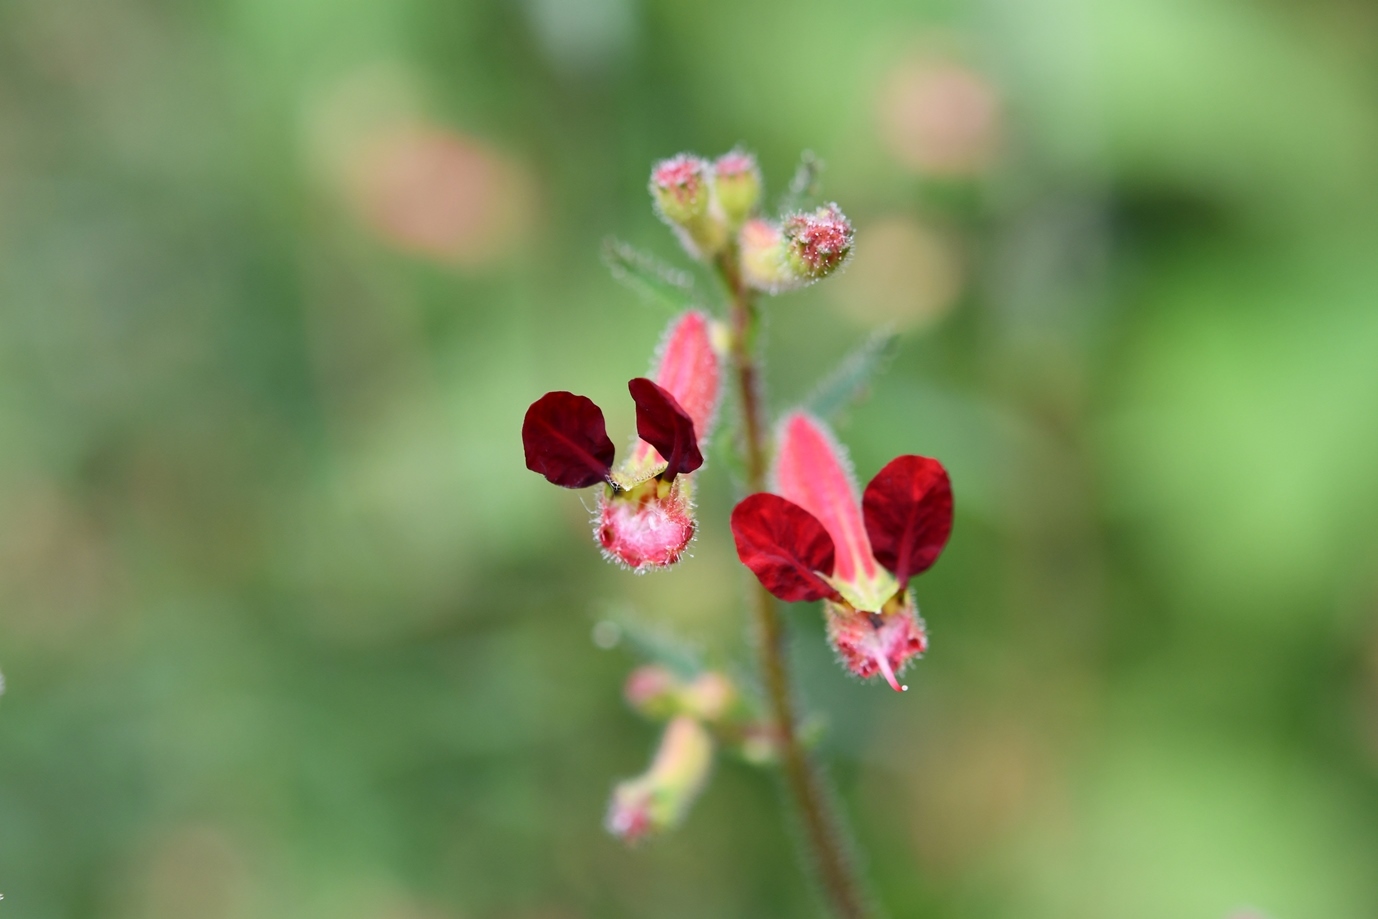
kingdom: Plantae
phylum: Tracheophyta
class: Magnoliopsida
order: Myrtales
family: Lythraceae
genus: Cuphea
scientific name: Cuphea hookeriana
